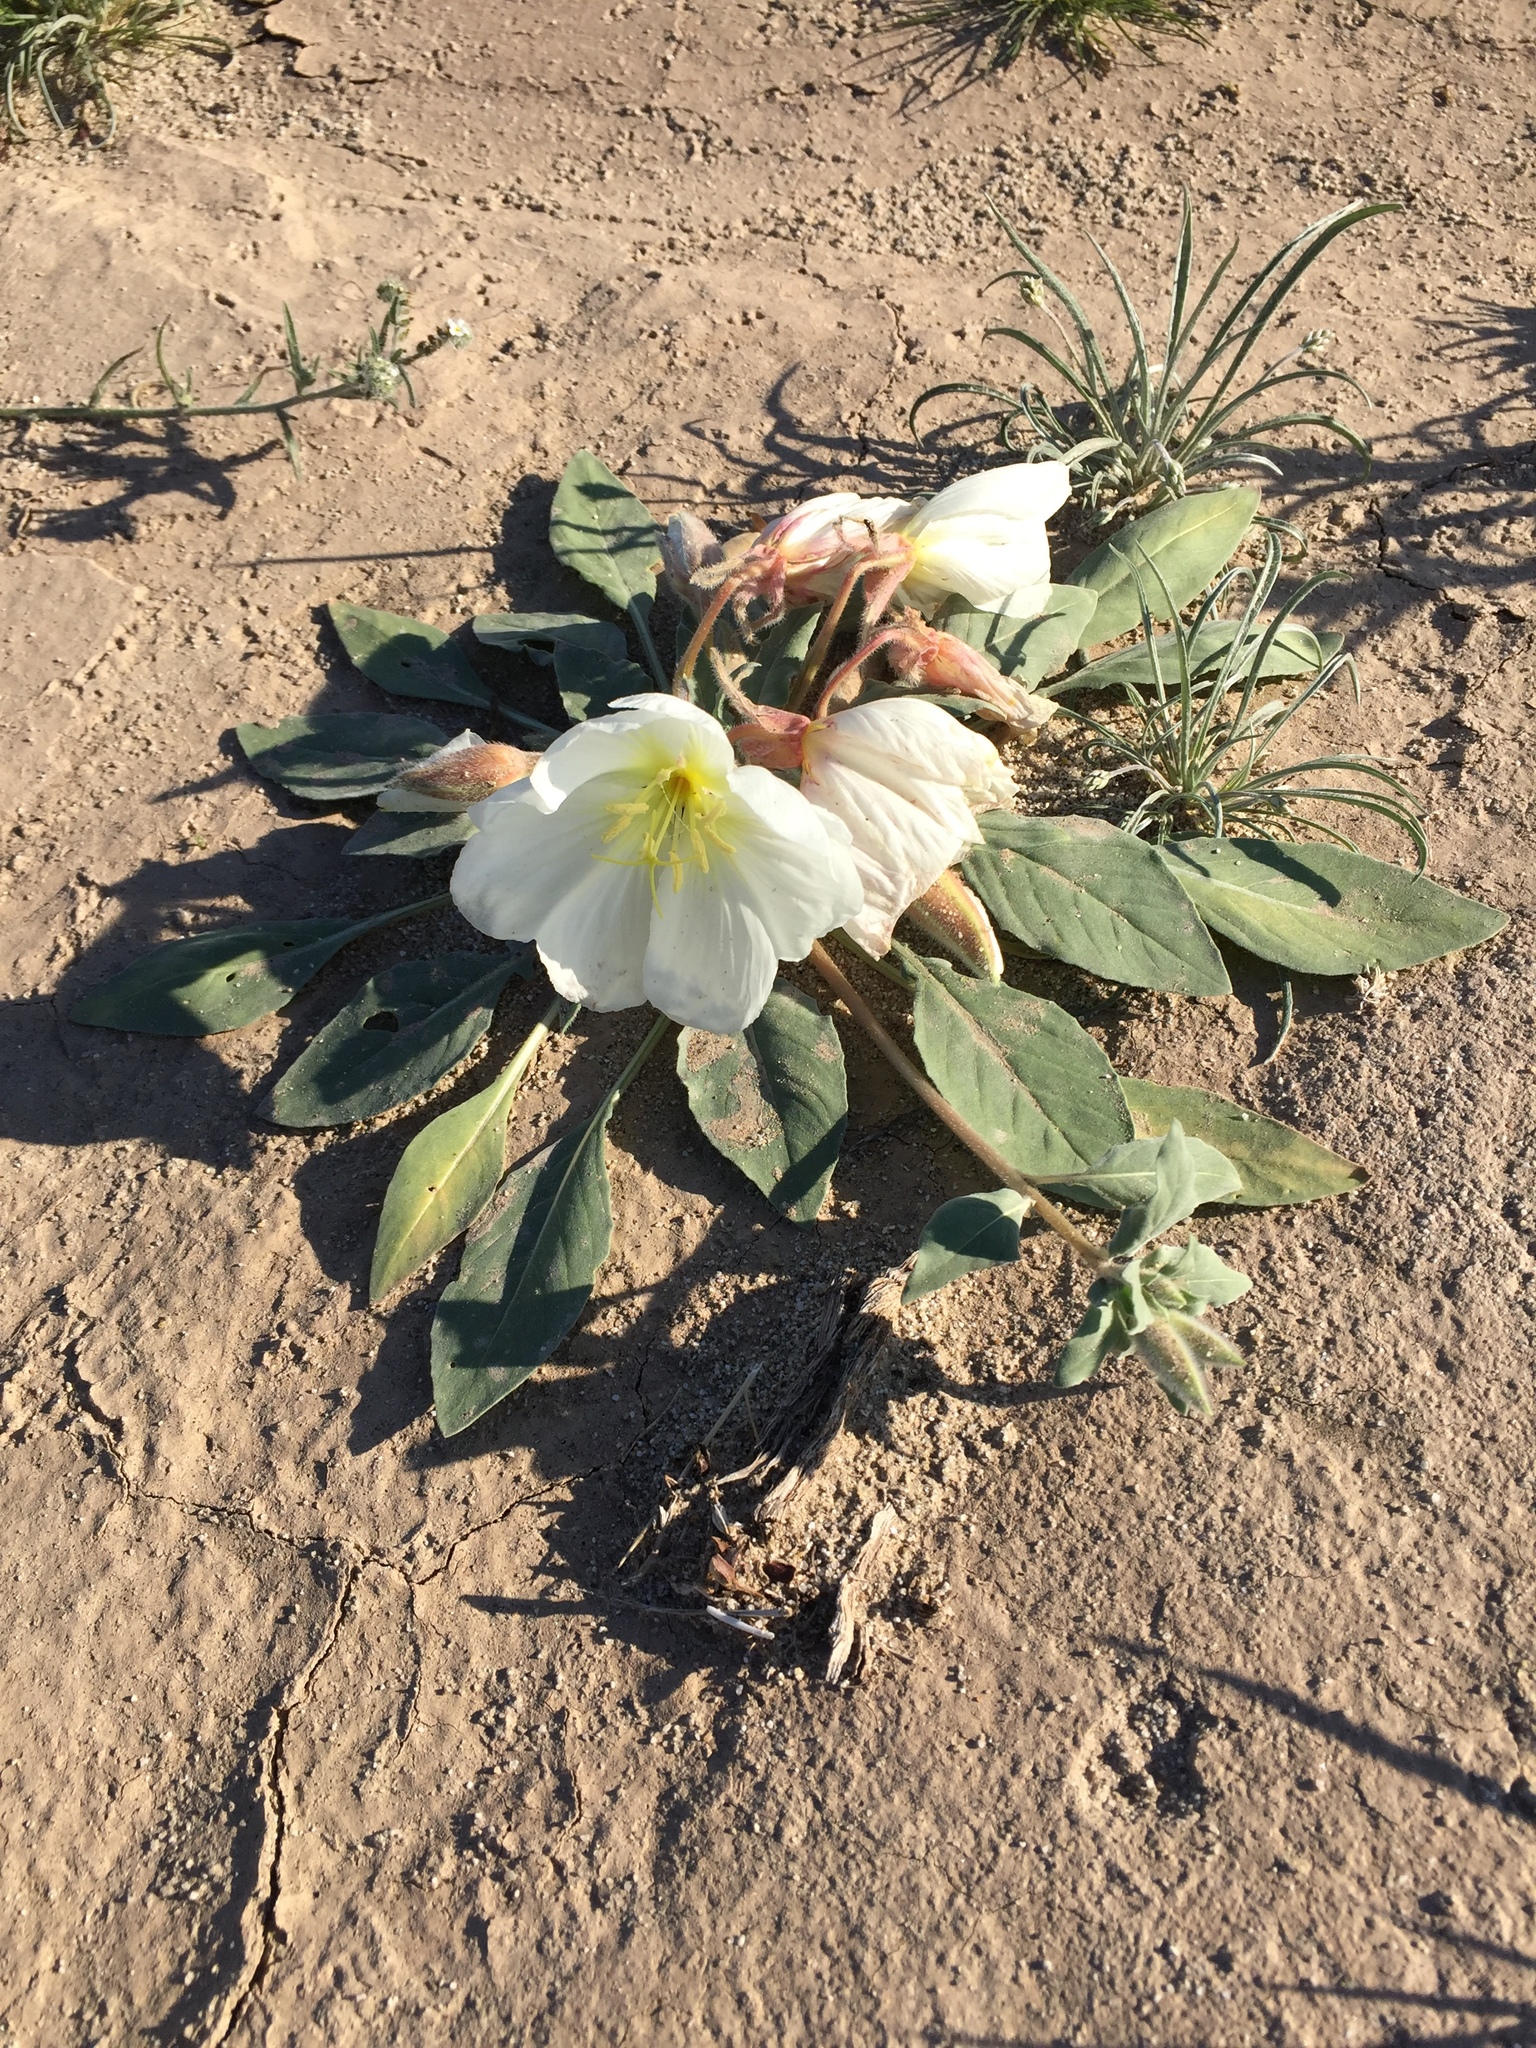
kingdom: Plantae
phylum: Tracheophyta
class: Magnoliopsida
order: Myrtales
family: Onagraceae
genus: Oenothera
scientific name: Oenothera deltoides
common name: Basket evening-primrose
